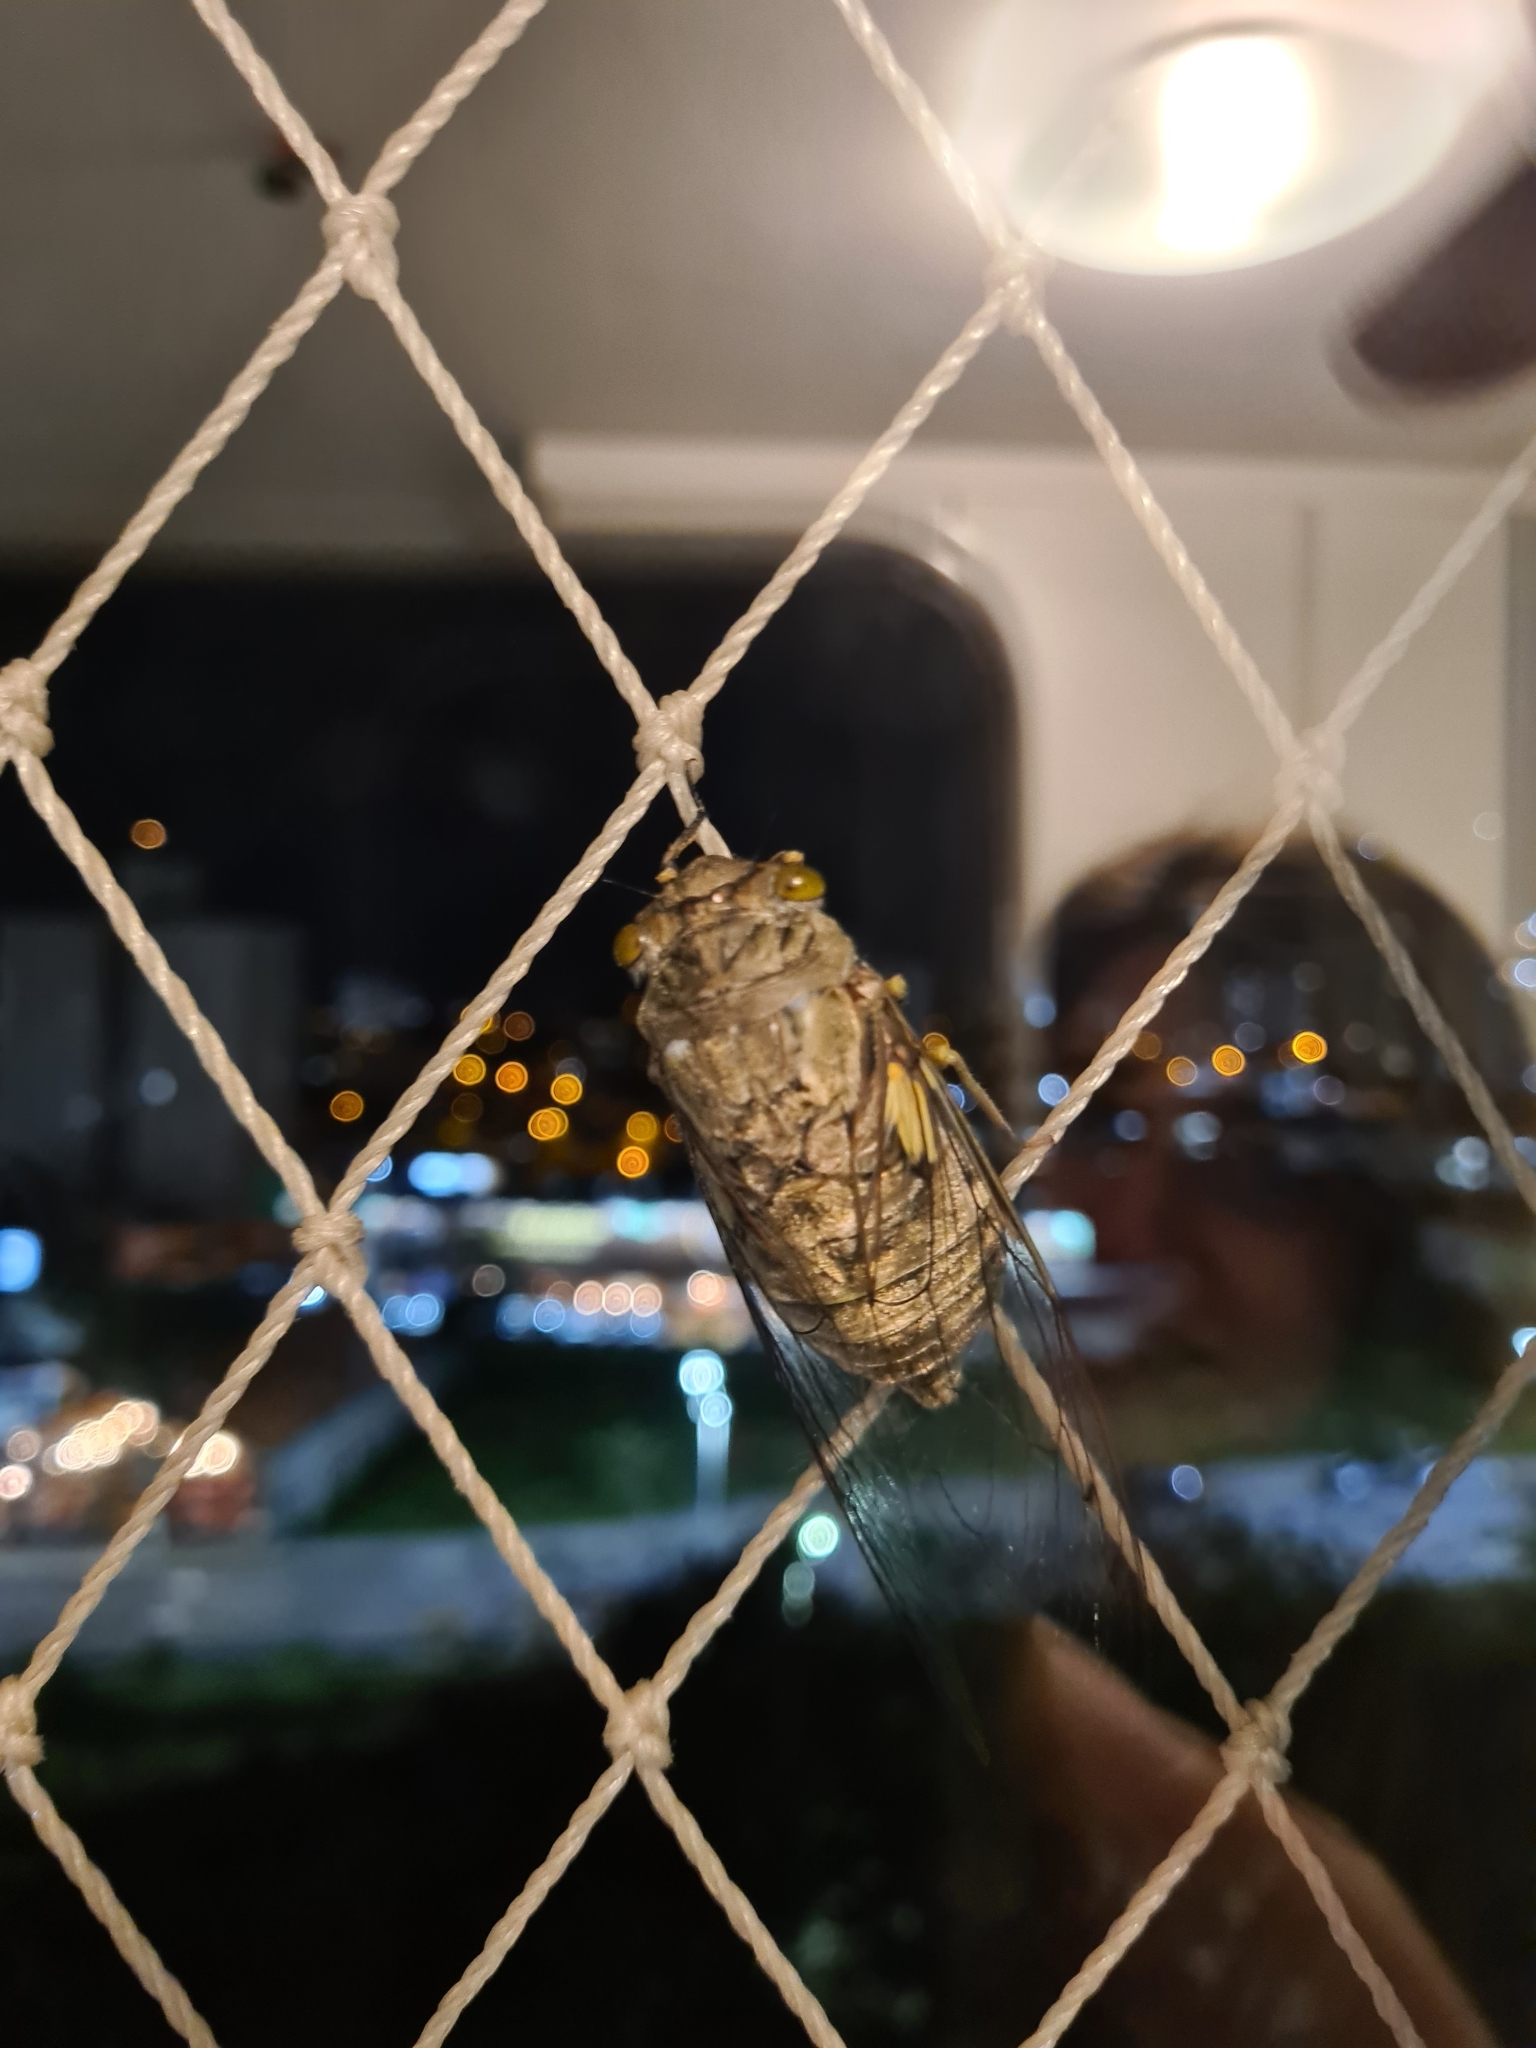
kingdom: Animalia
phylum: Arthropoda
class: Insecta
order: Hemiptera
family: Cicadidae
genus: Quesada
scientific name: Quesada gigas
